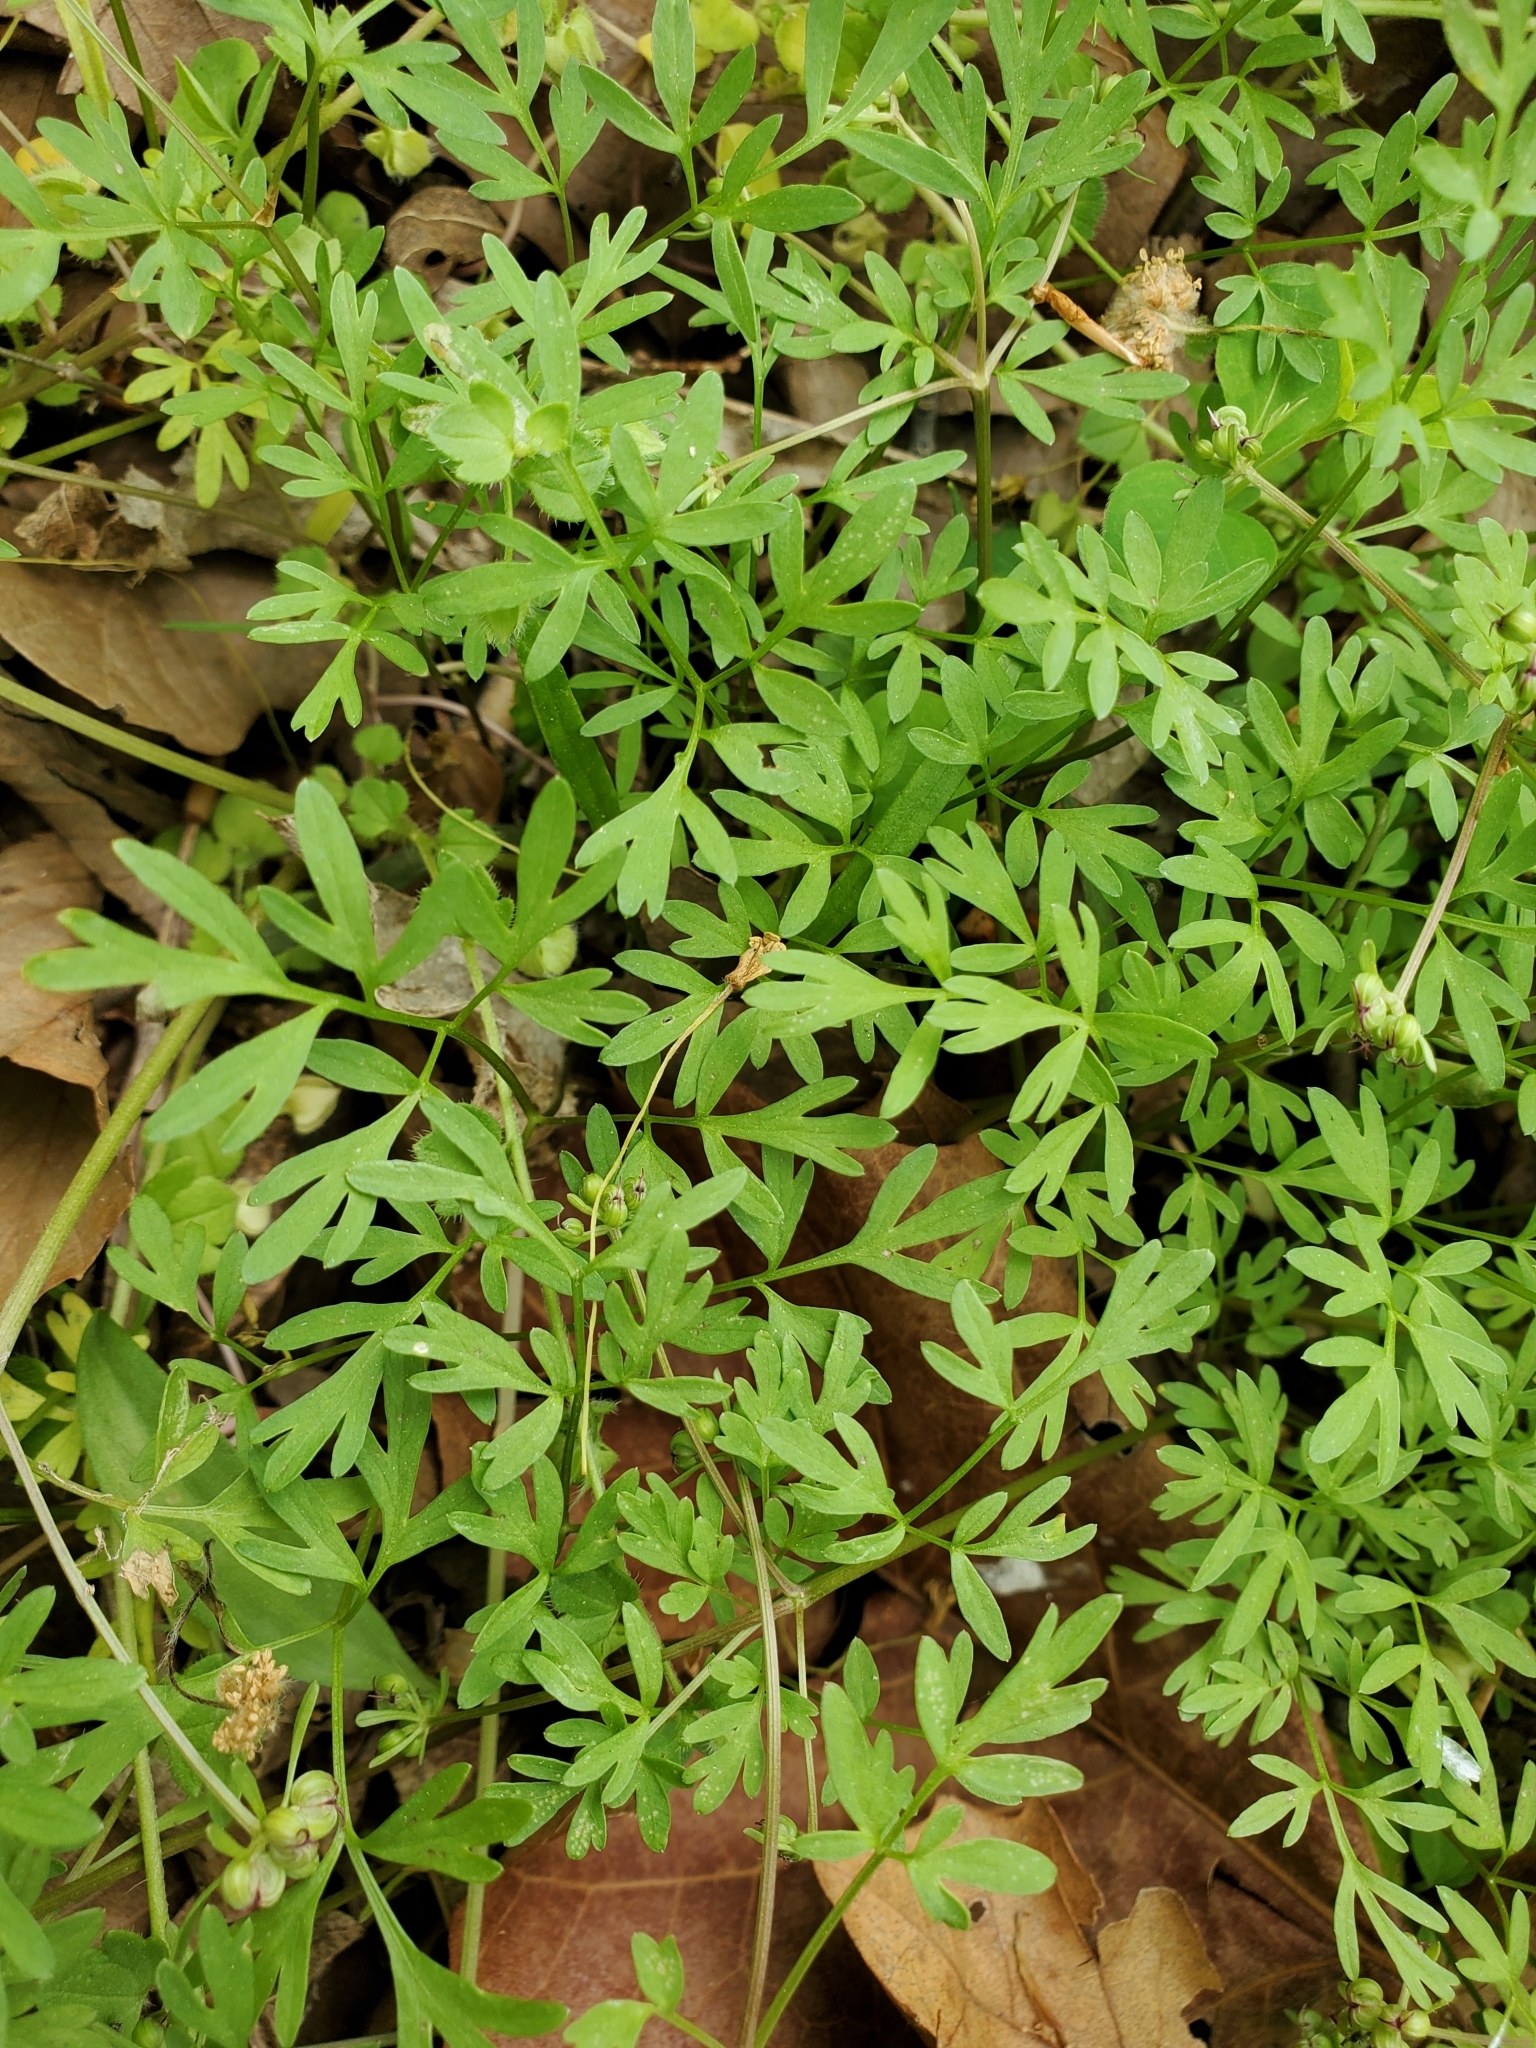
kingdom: Plantae
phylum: Tracheophyta
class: Magnoliopsida
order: Apiales
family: Apiaceae
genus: Erigenia
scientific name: Erigenia bulbosa
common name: Pepper-and-salt
